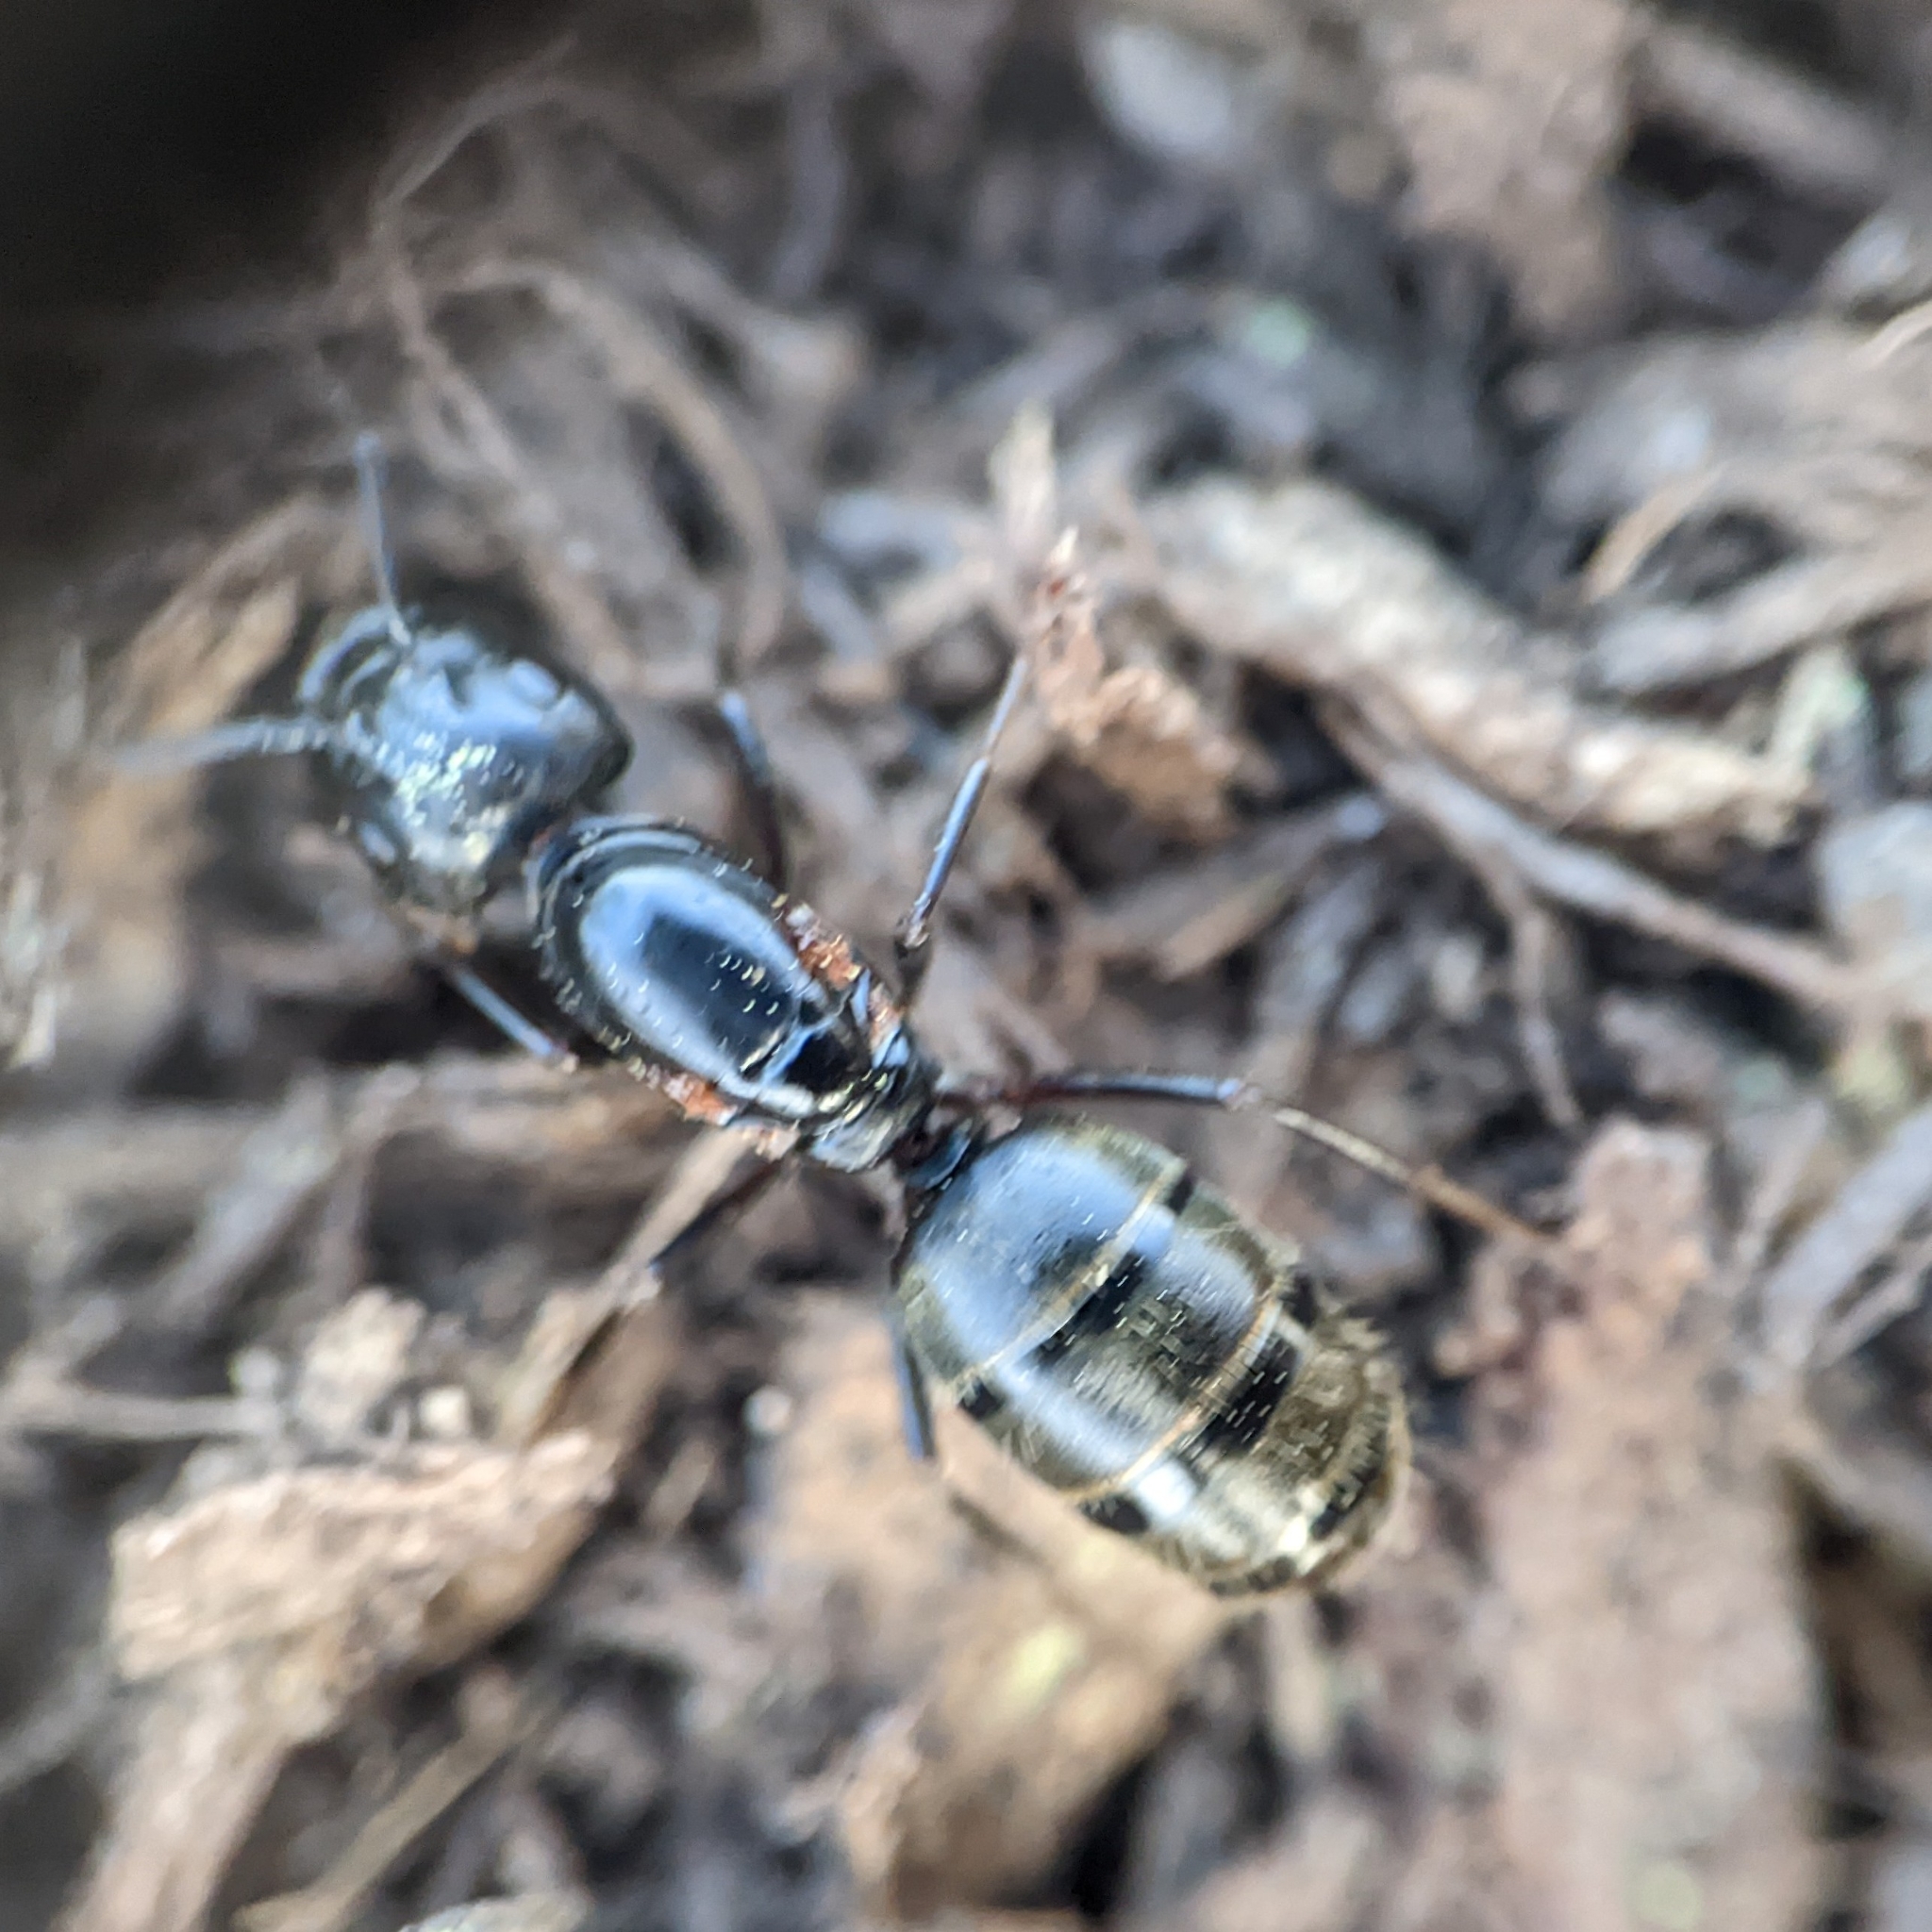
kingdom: Animalia
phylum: Arthropoda
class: Insecta
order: Hymenoptera
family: Formicidae
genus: Camponotus
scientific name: Camponotus pennsylvanicus
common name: Black carpenter ant
